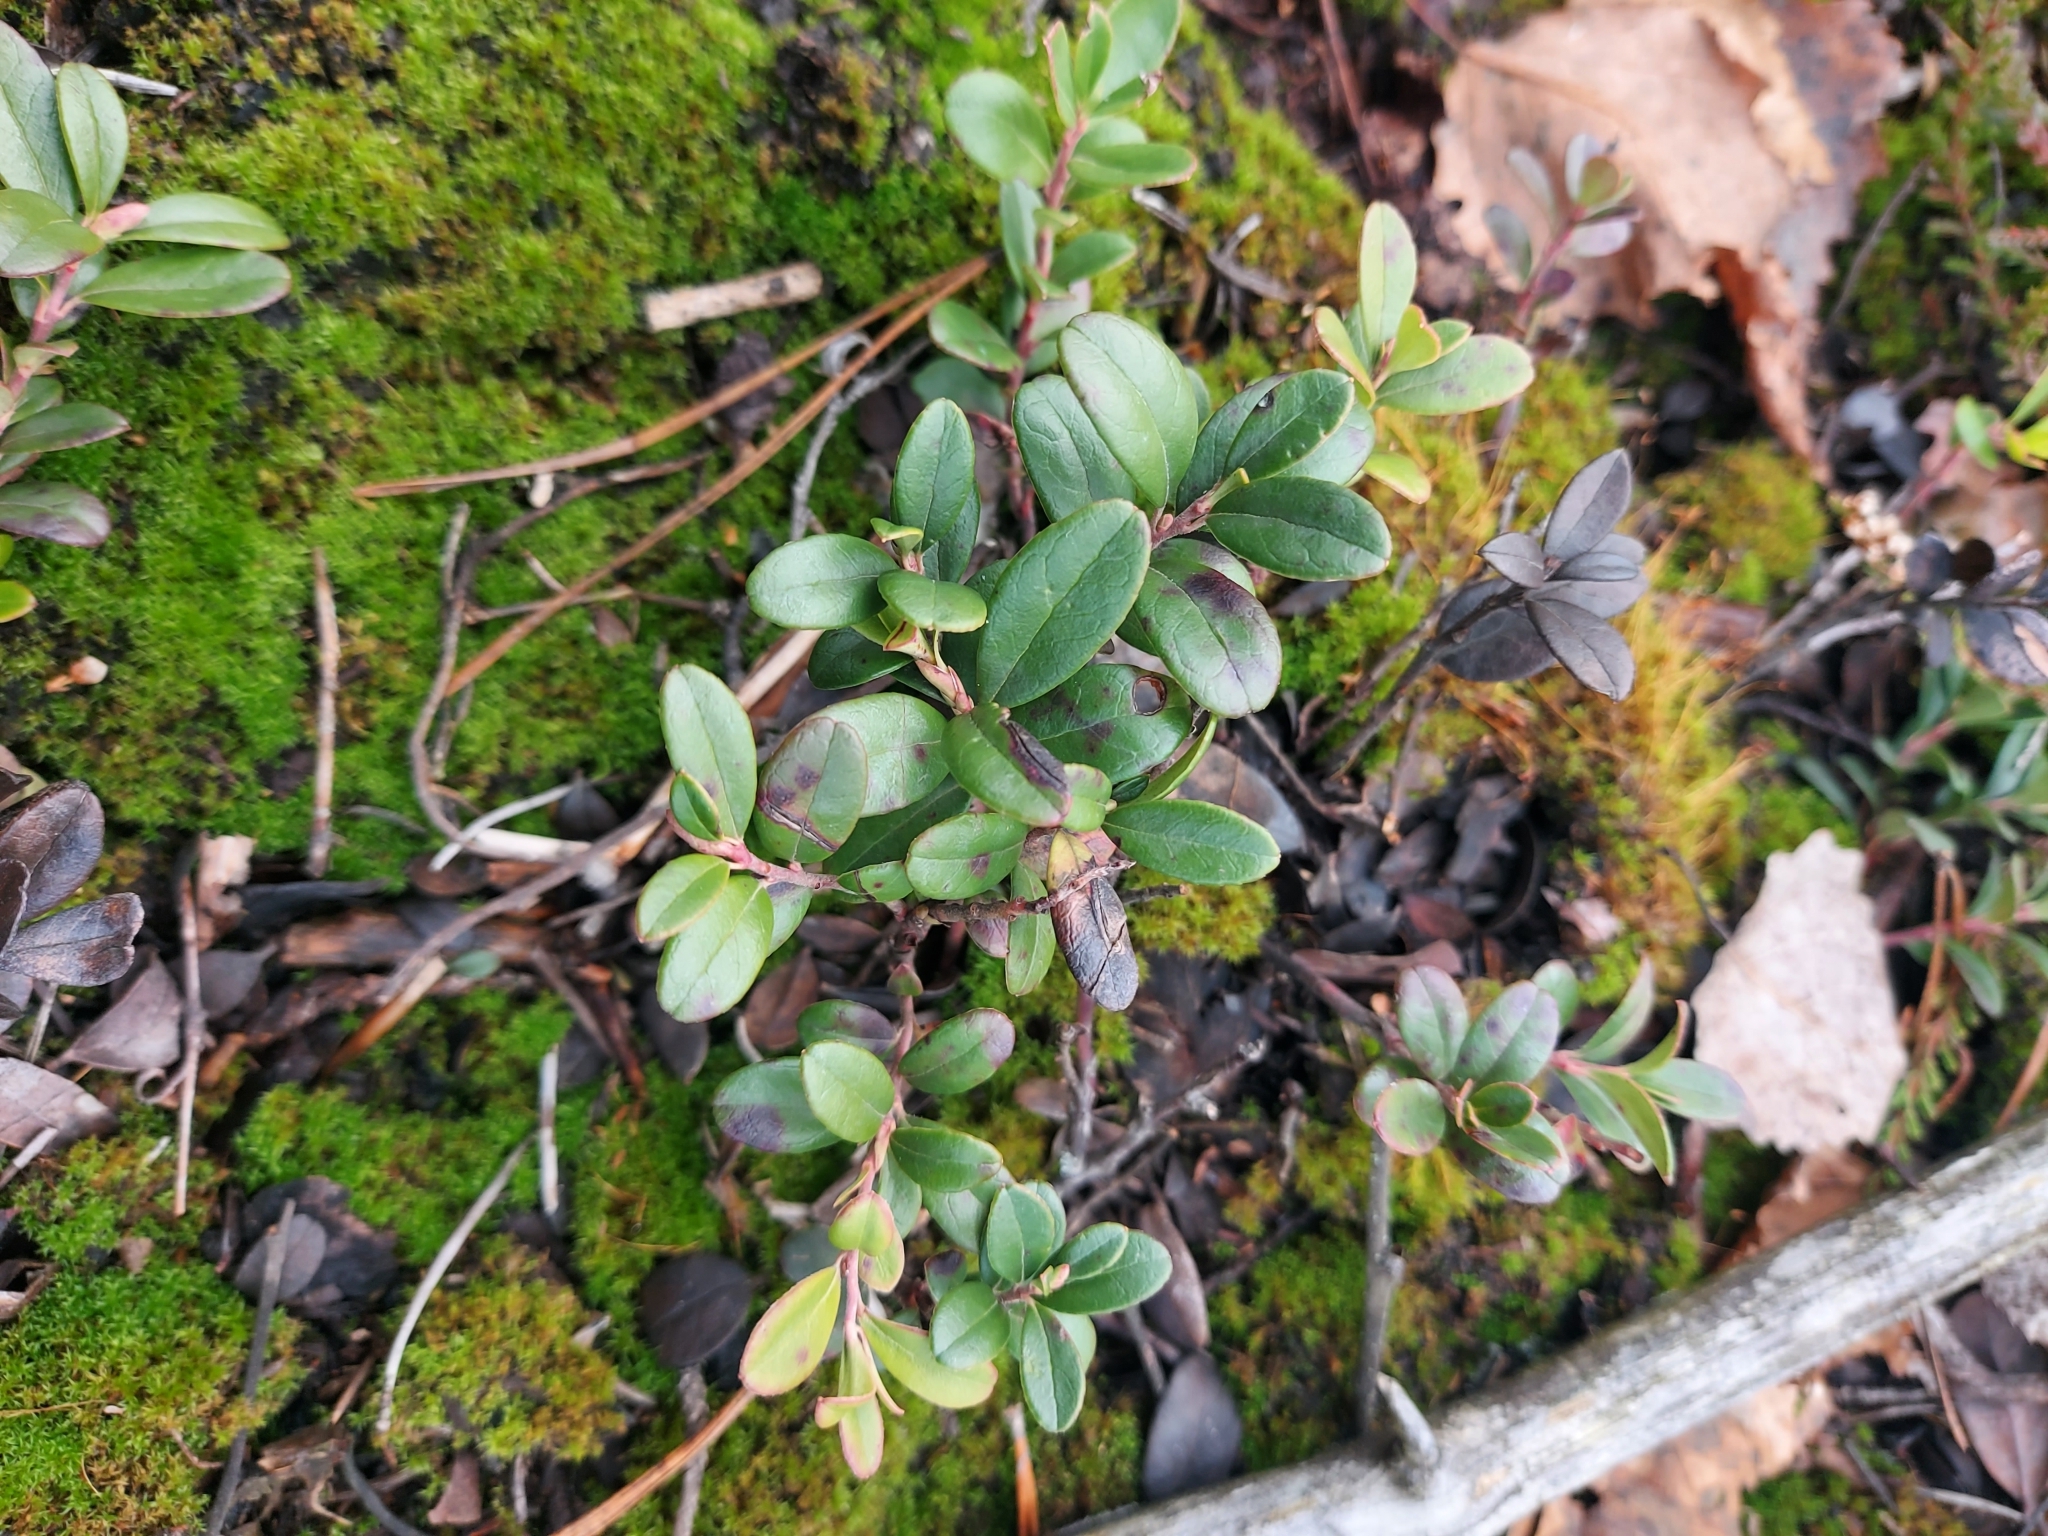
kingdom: Plantae
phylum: Tracheophyta
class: Magnoliopsida
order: Ericales
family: Ericaceae
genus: Vaccinium
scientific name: Vaccinium vitis-idaea
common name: Cowberry
